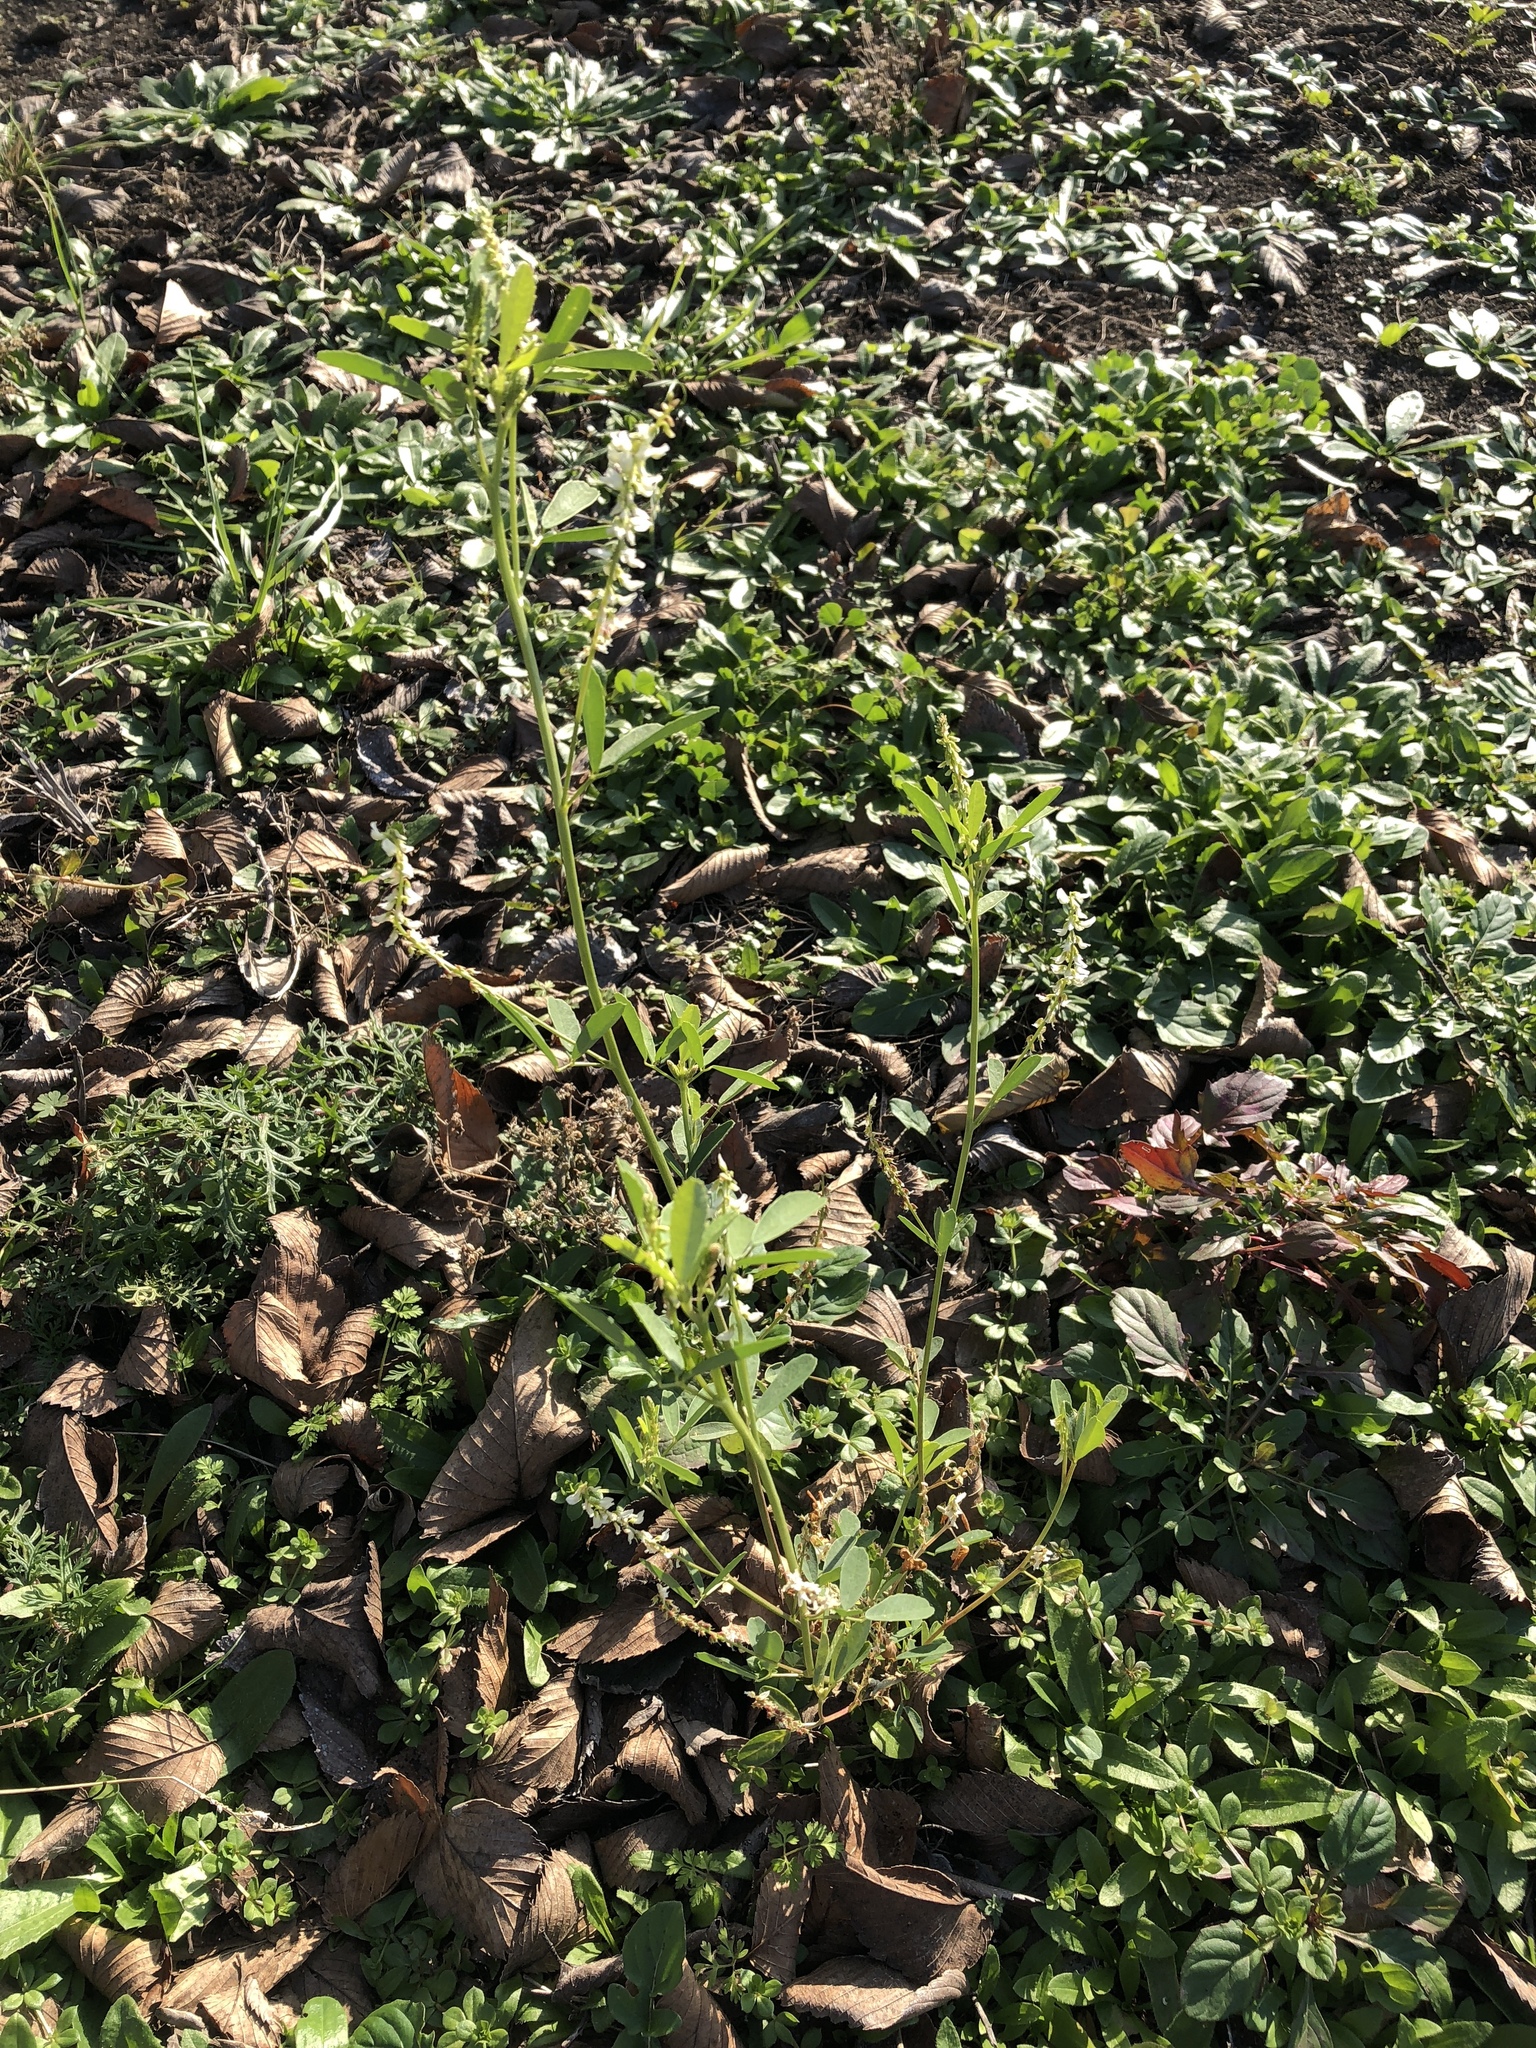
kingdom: Plantae
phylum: Tracheophyta
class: Magnoliopsida
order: Fabales
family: Fabaceae
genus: Melilotus
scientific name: Melilotus albus
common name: White melilot
